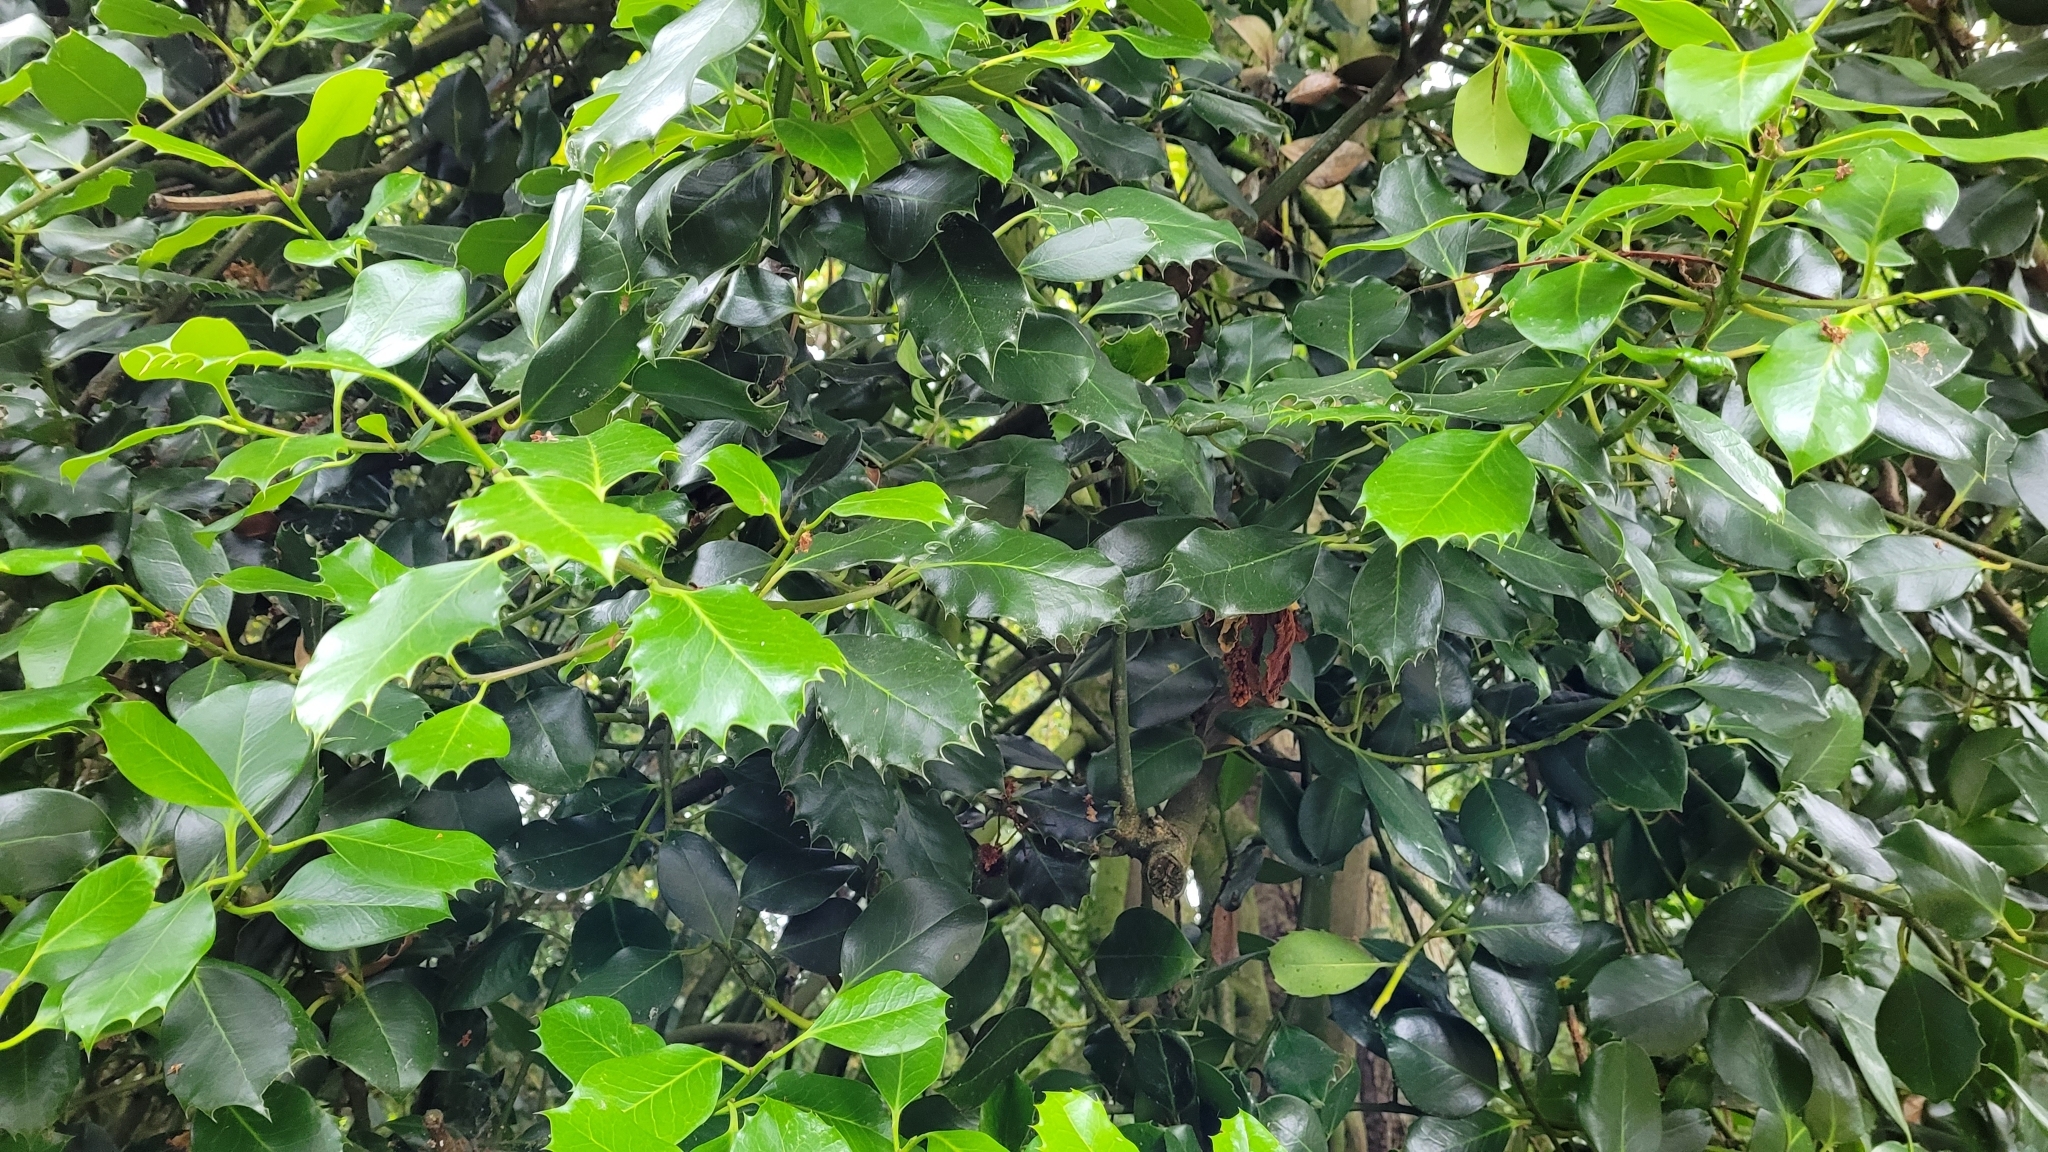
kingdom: Plantae
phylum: Tracheophyta
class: Magnoliopsida
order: Aquifoliales
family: Aquifoliaceae
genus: Ilex
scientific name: Ilex aquifolium
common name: English holly
